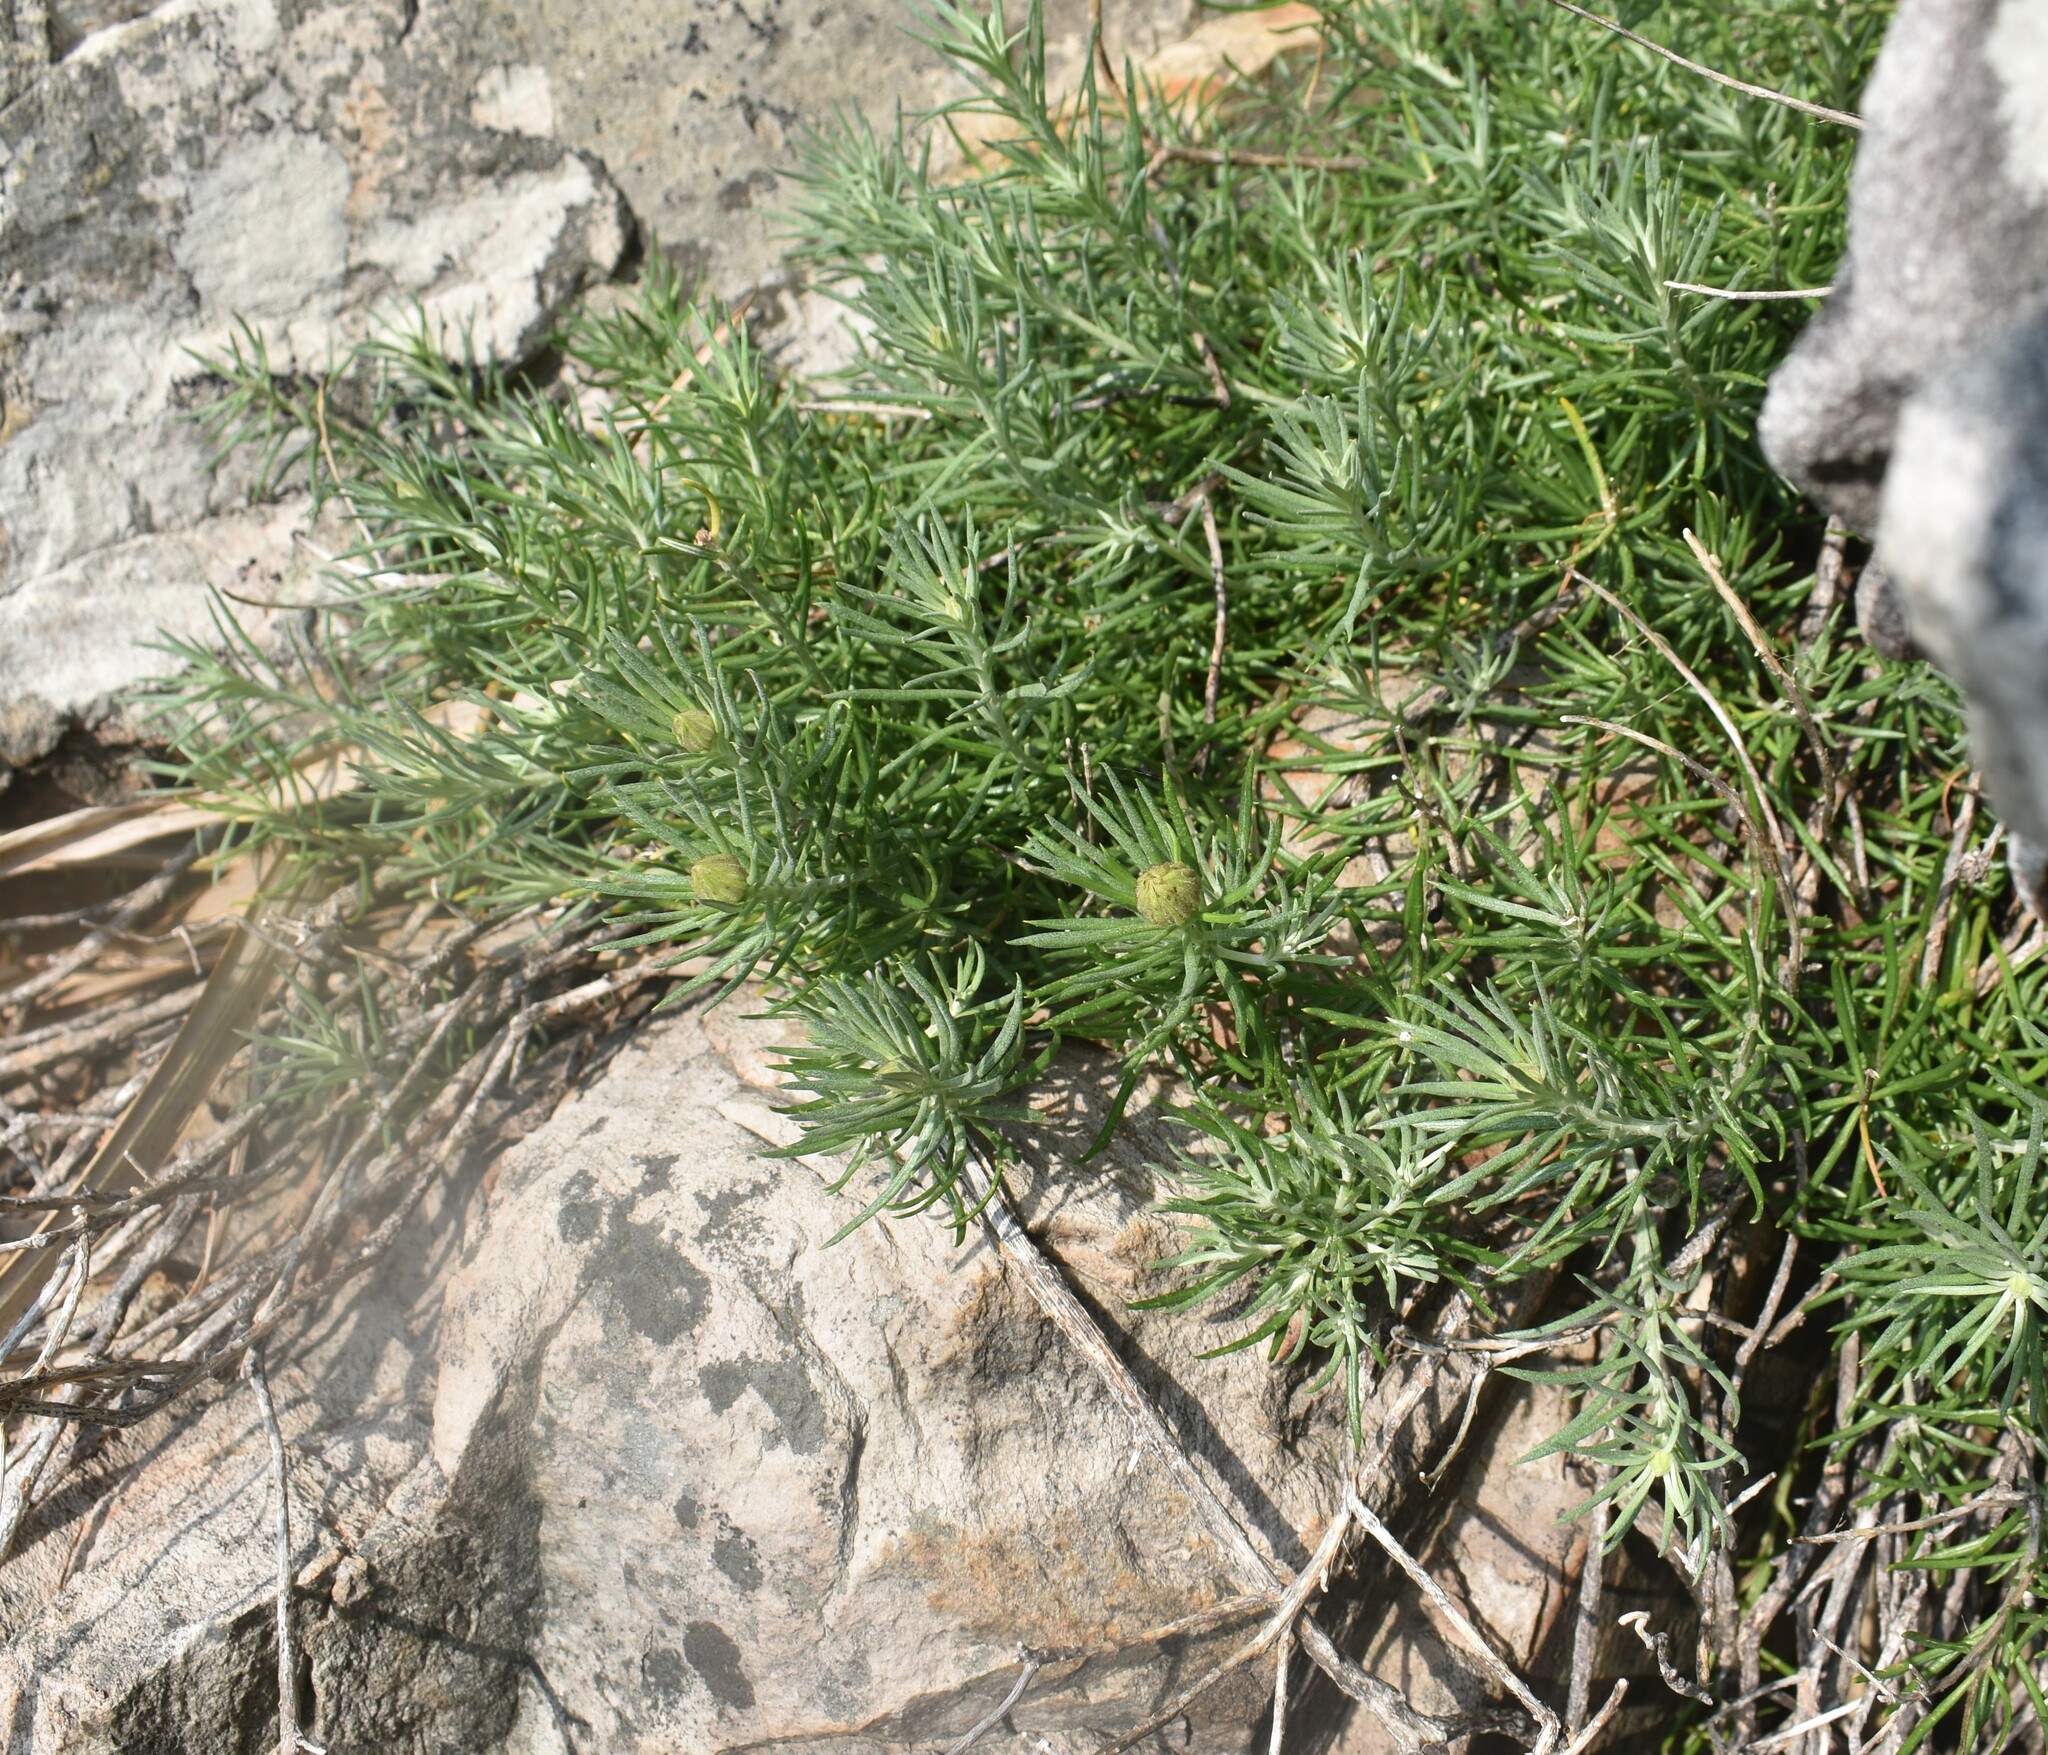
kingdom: Plantae
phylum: Tracheophyta
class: Magnoliopsida
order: Asterales
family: Asteraceae
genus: Heterolepis
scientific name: Heterolepis aliena
